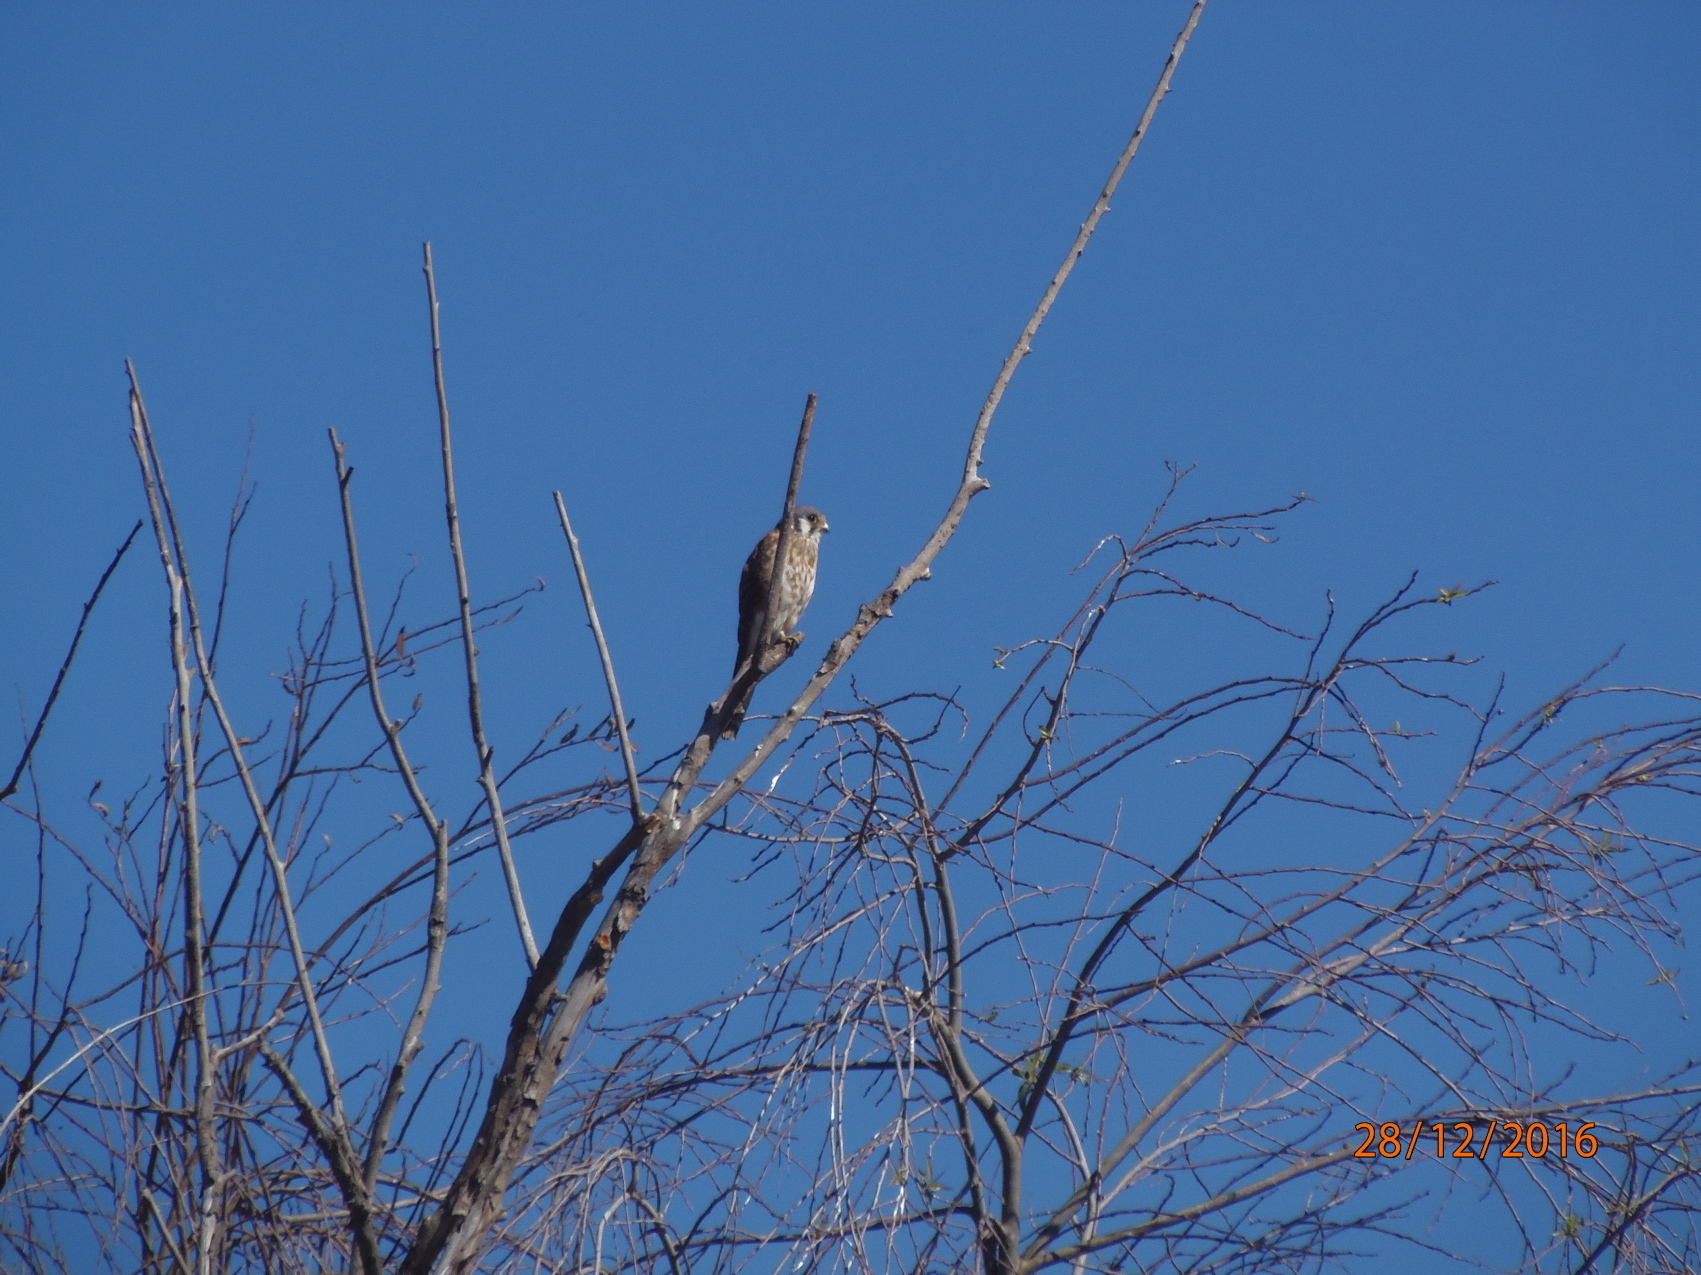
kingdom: Animalia
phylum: Chordata
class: Aves
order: Falconiformes
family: Falconidae
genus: Falco
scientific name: Falco sparverius
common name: American kestrel
